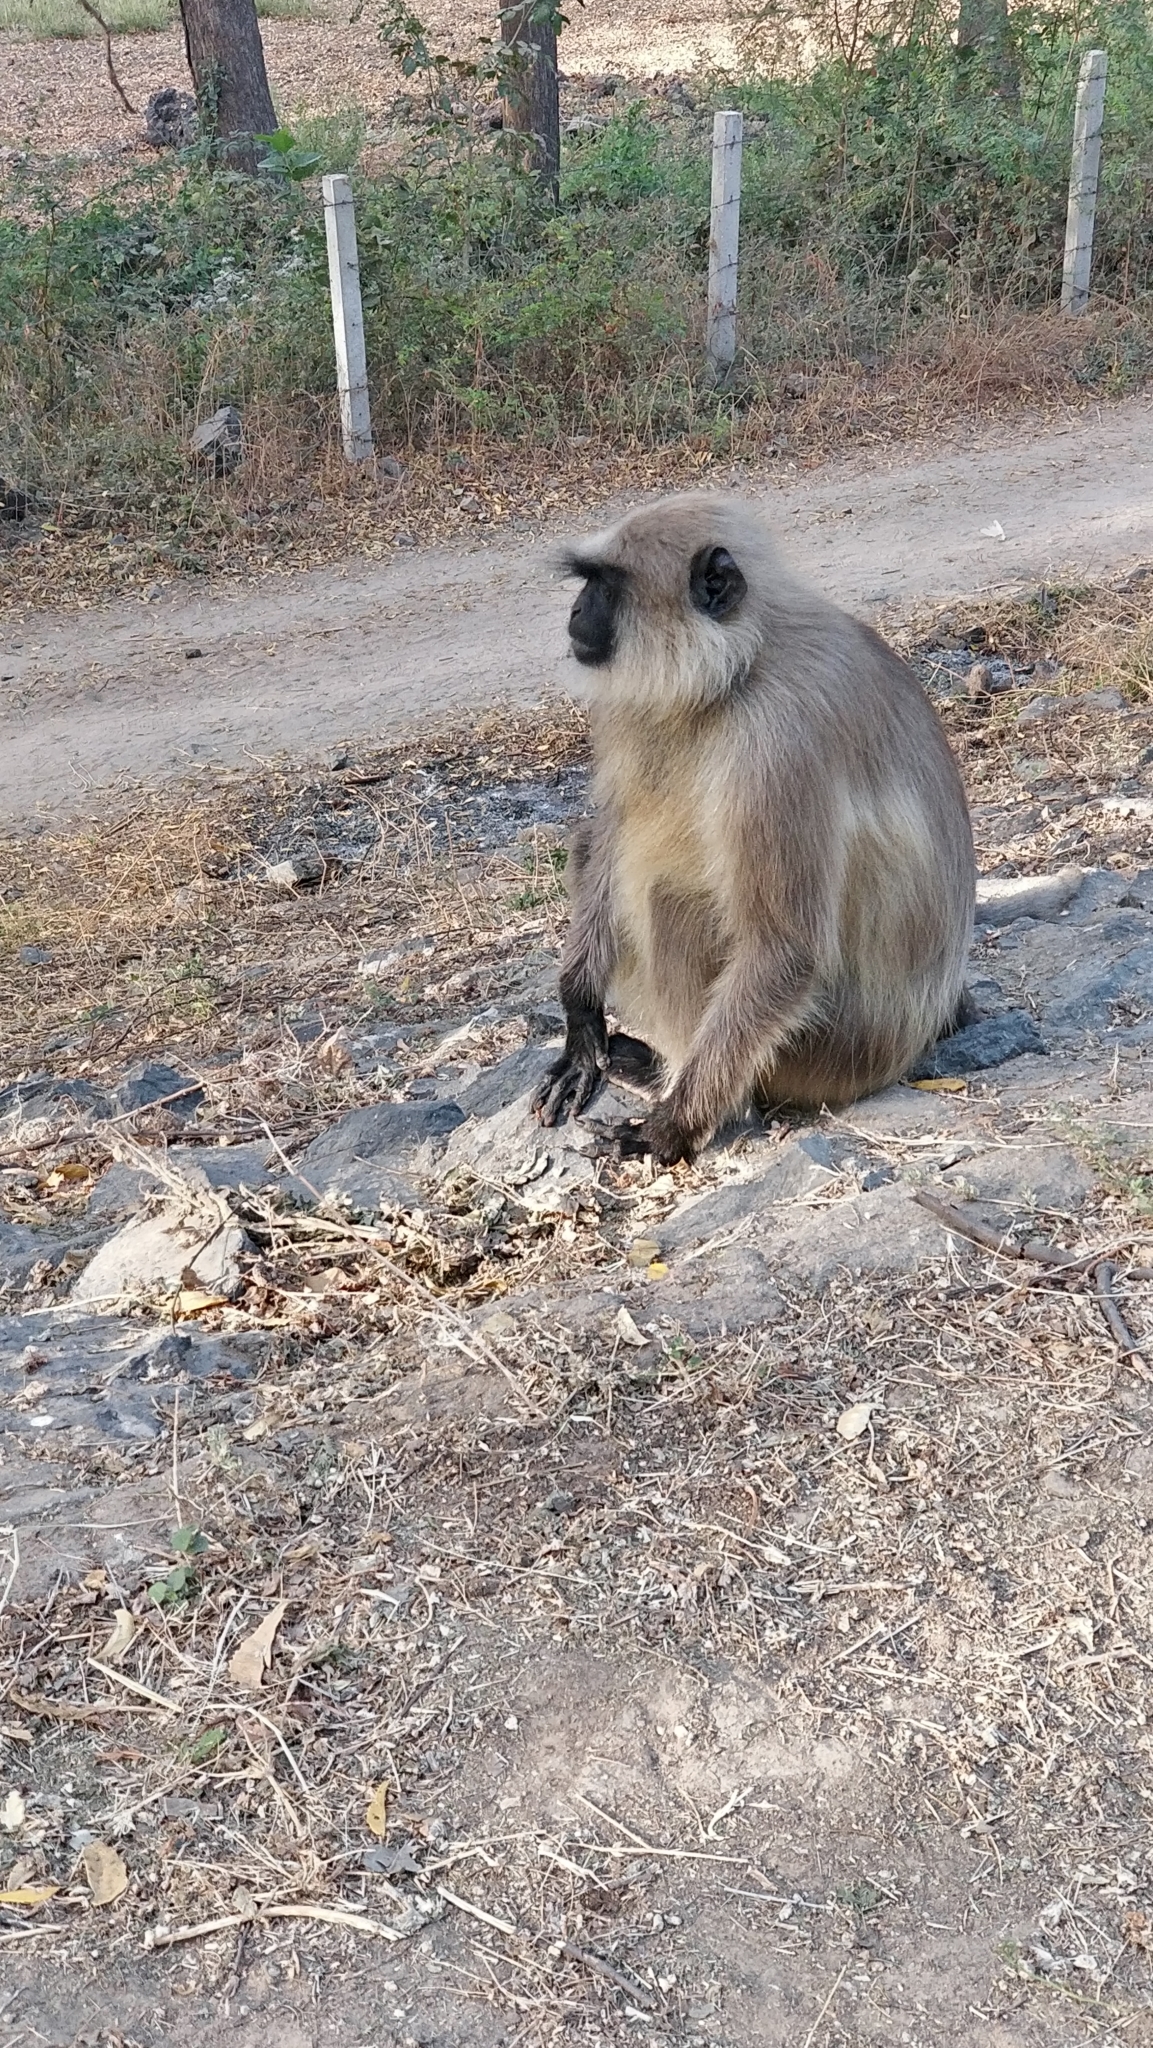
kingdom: Animalia
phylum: Chordata
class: Mammalia
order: Primates
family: Cercopithecidae
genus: Semnopithecus
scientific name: Semnopithecus entellus
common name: Northern plains gray langur
